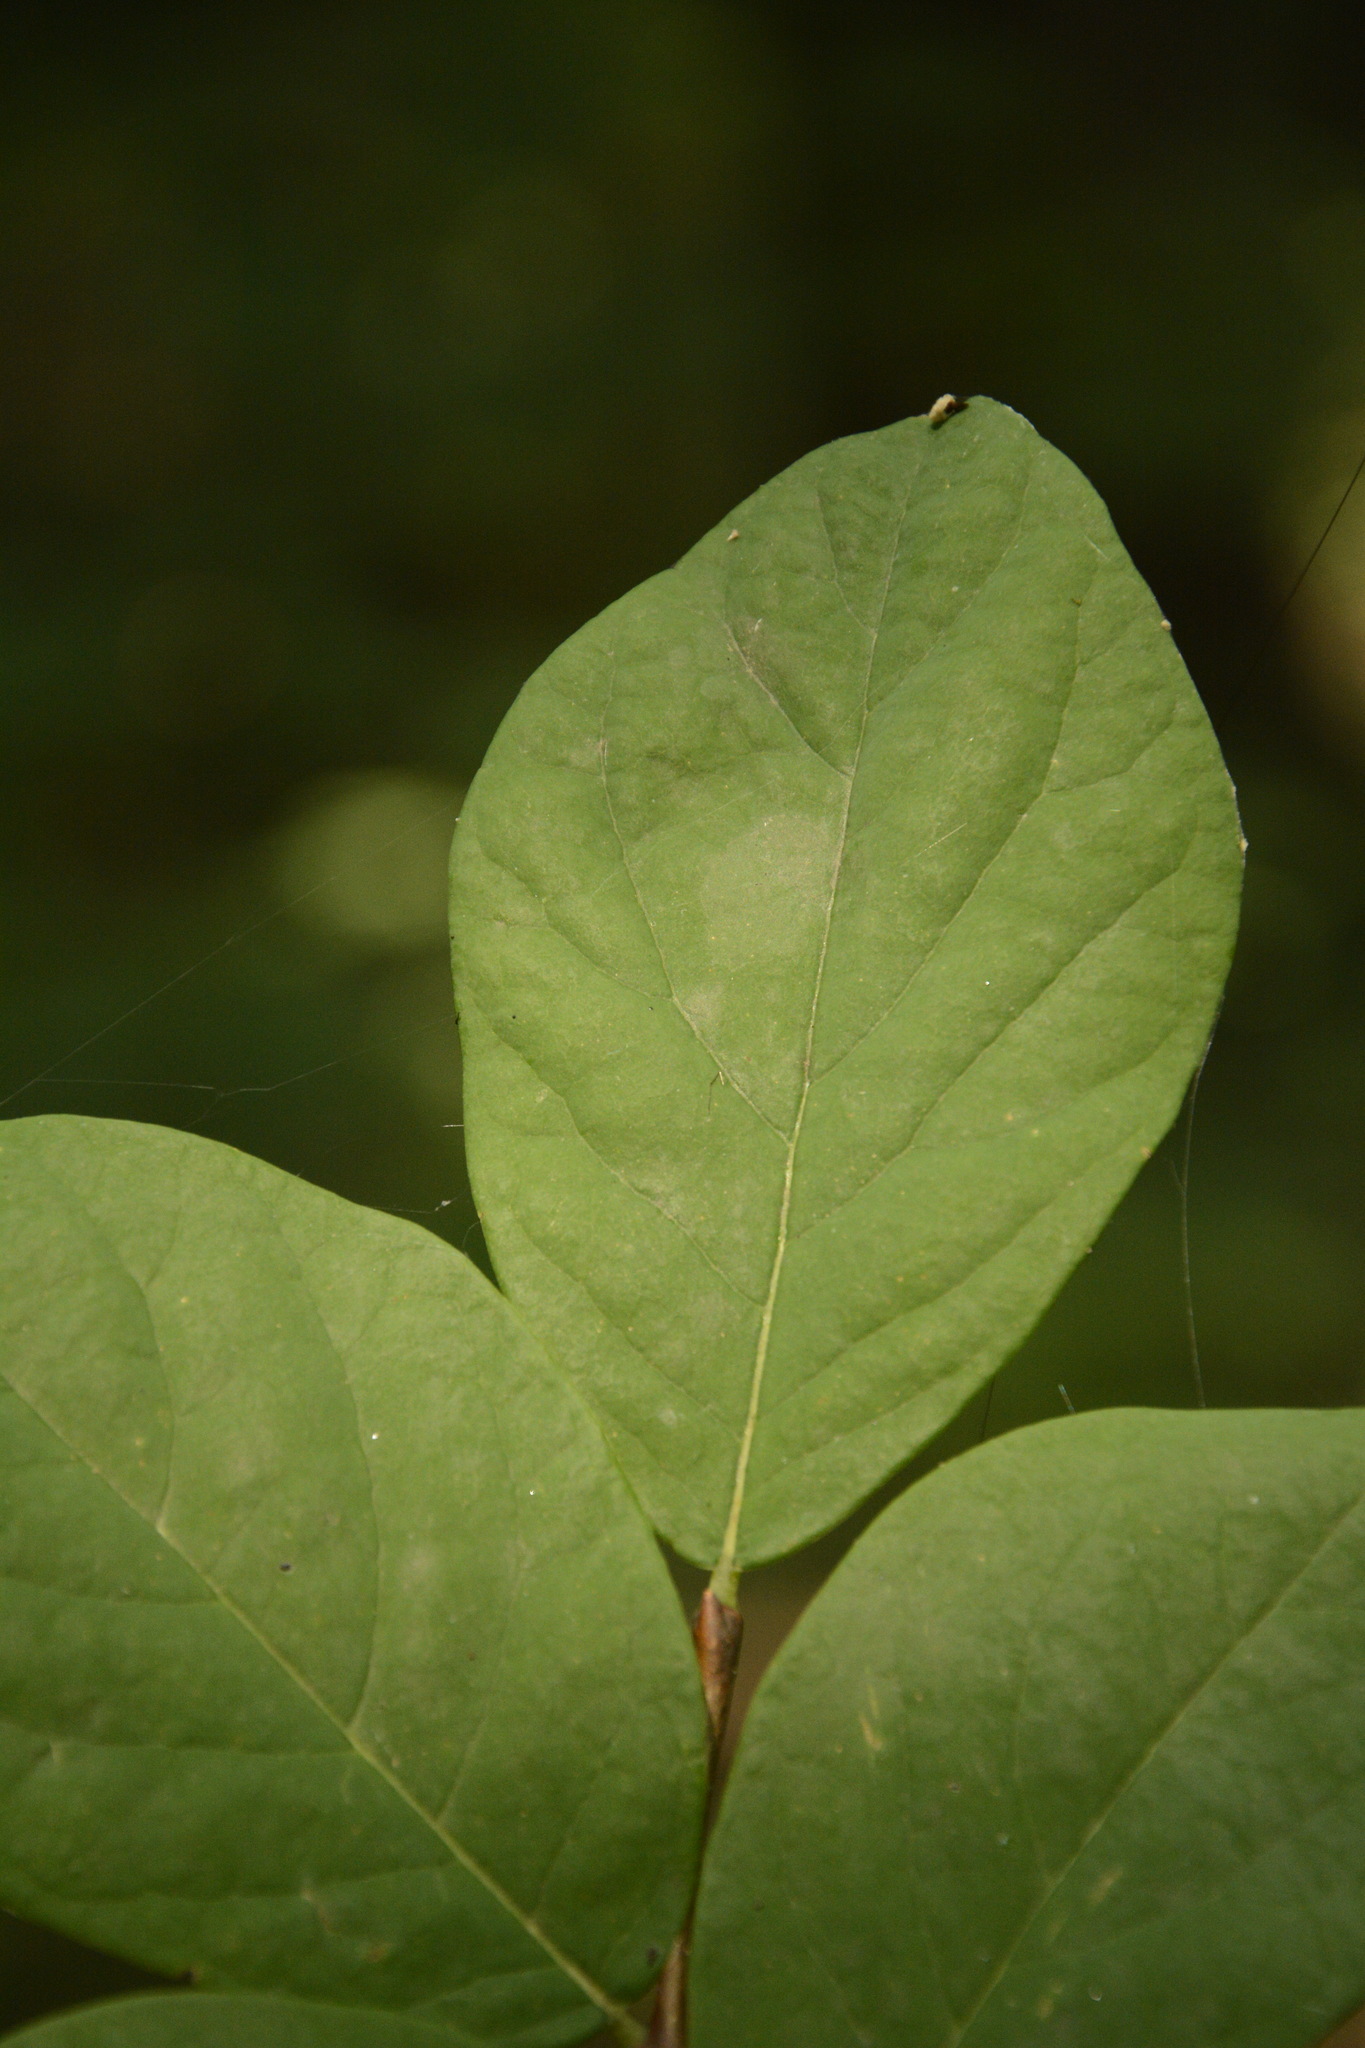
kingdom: Plantae
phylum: Tracheophyta
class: Magnoliopsida
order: Malvales
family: Thymelaeaceae
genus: Dirca
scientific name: Dirca palustris
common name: Leatherwood
